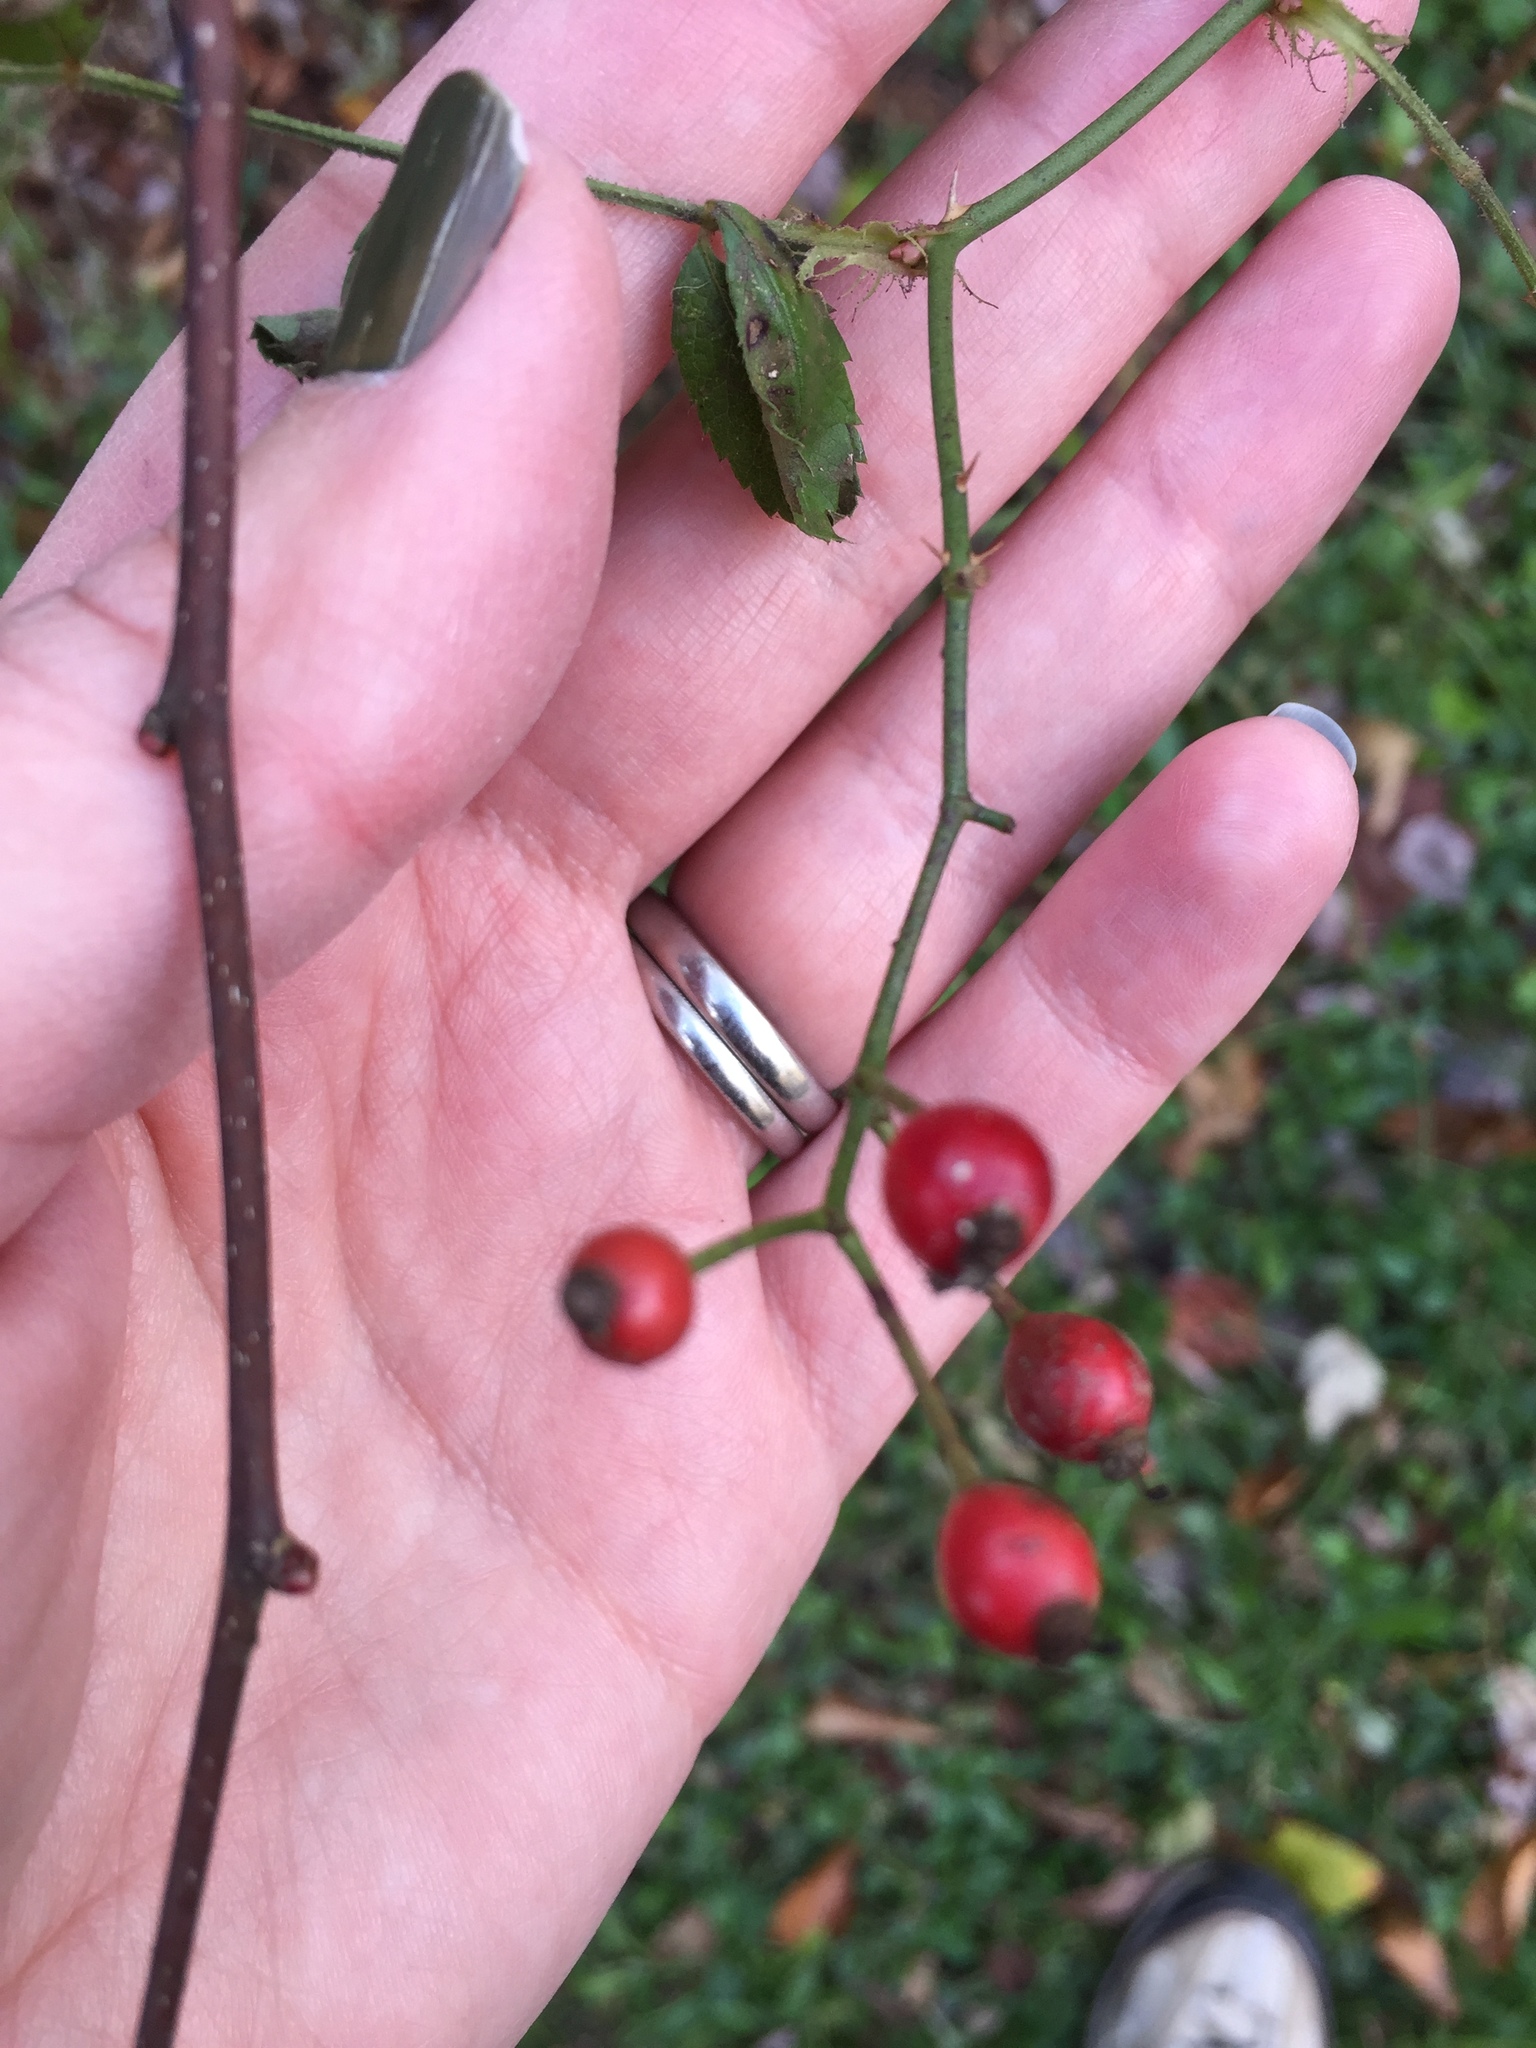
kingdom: Plantae
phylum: Tracheophyta
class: Magnoliopsida
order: Rosales
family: Rosaceae
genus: Rosa
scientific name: Rosa multiflora
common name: Multiflora rose
